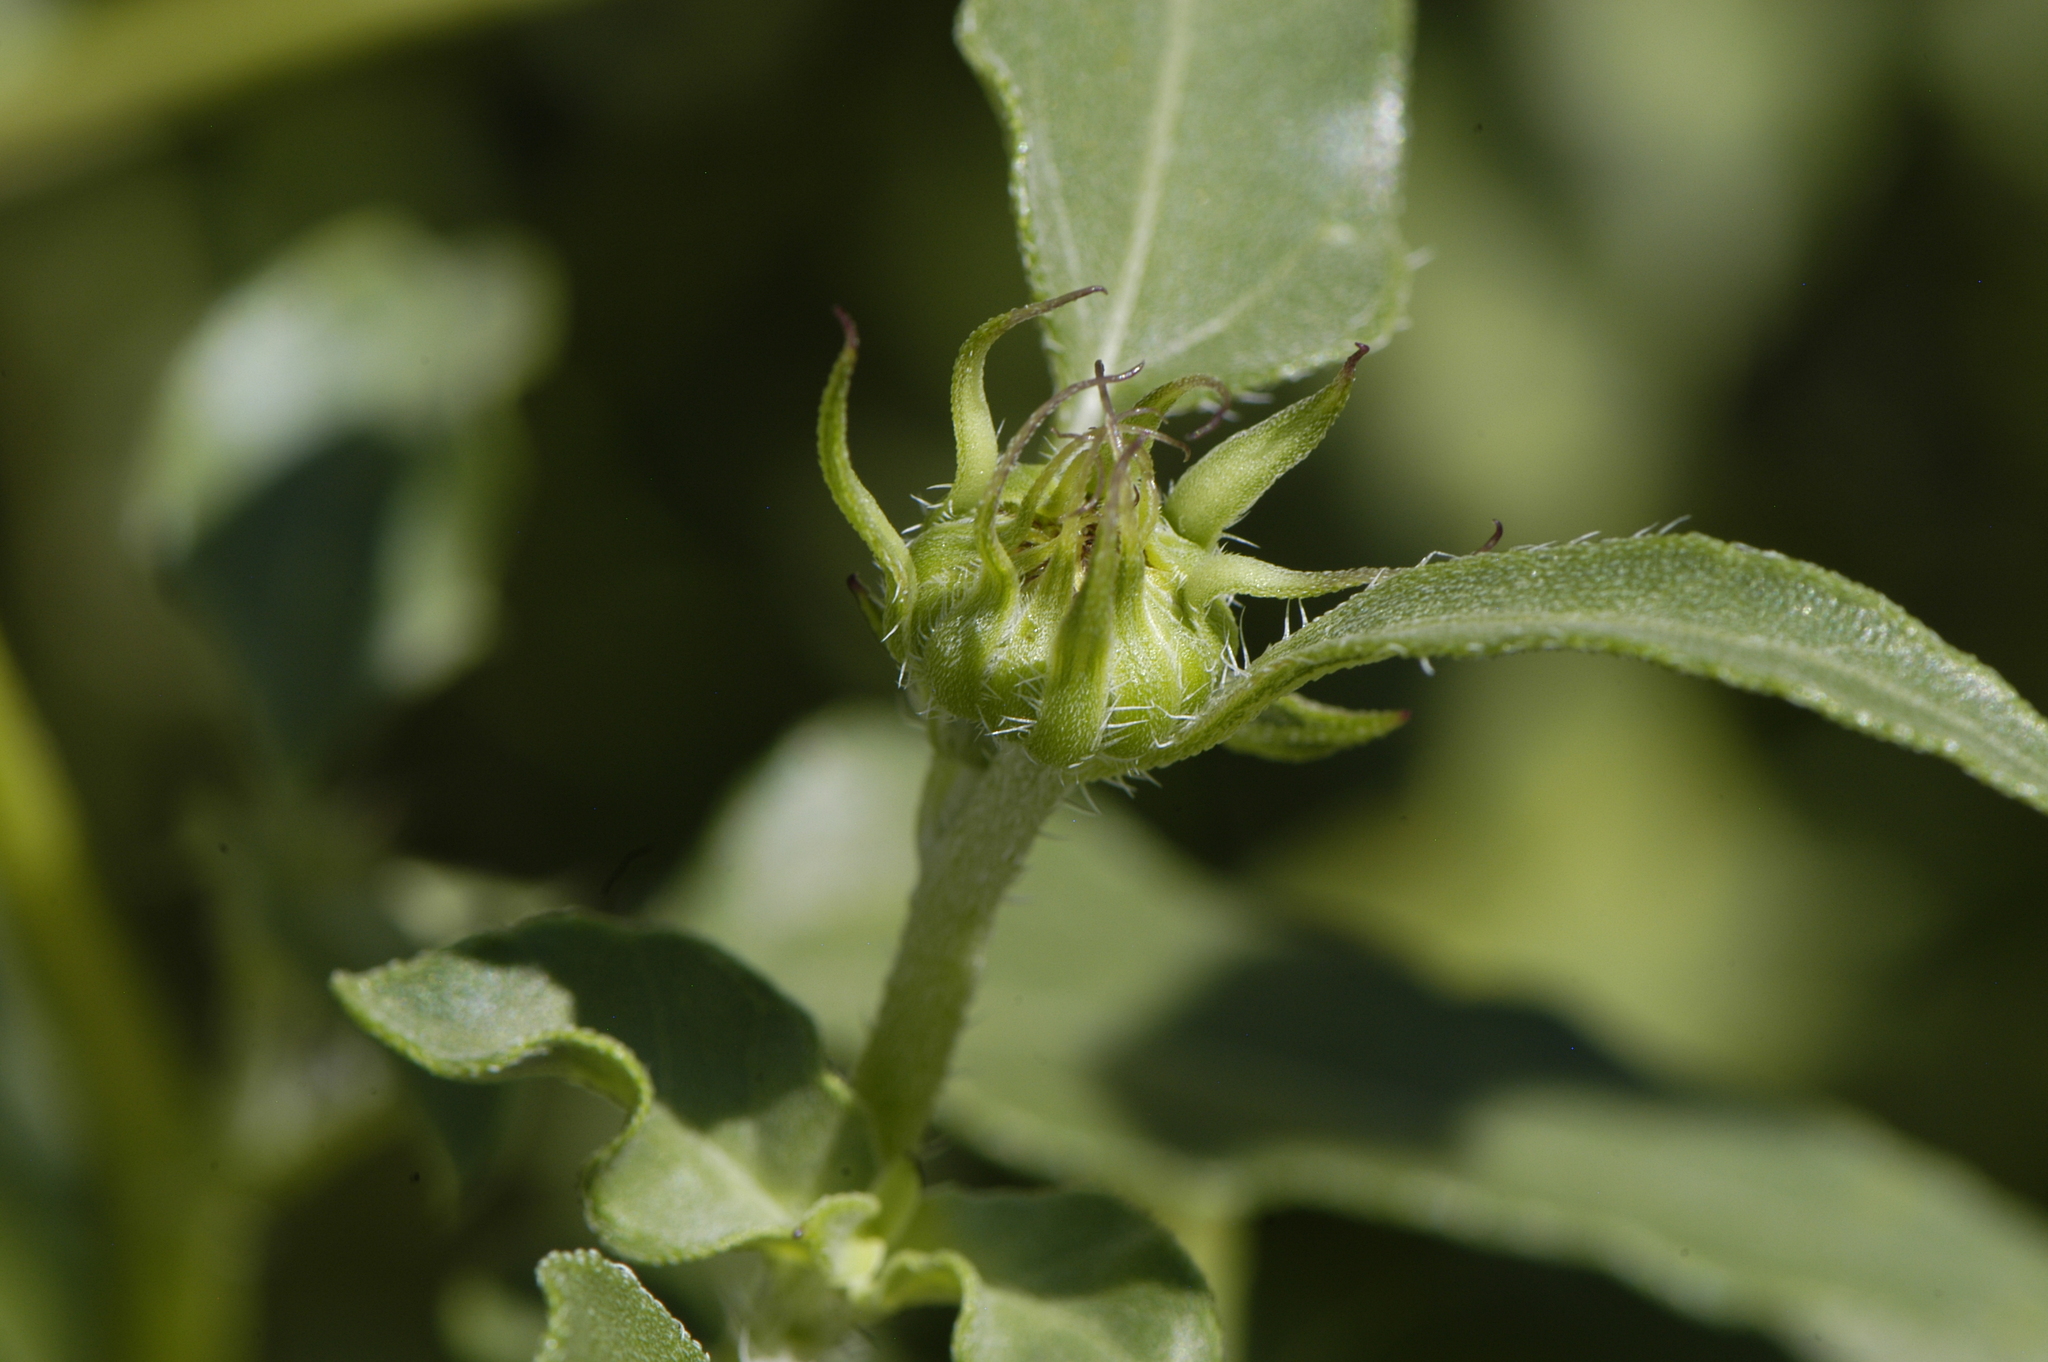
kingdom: Plantae
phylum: Tracheophyta
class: Magnoliopsida
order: Asterales
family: Asteraceae
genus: Helianthus
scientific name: Helianthus petiolaris
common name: Lesser sunflower
